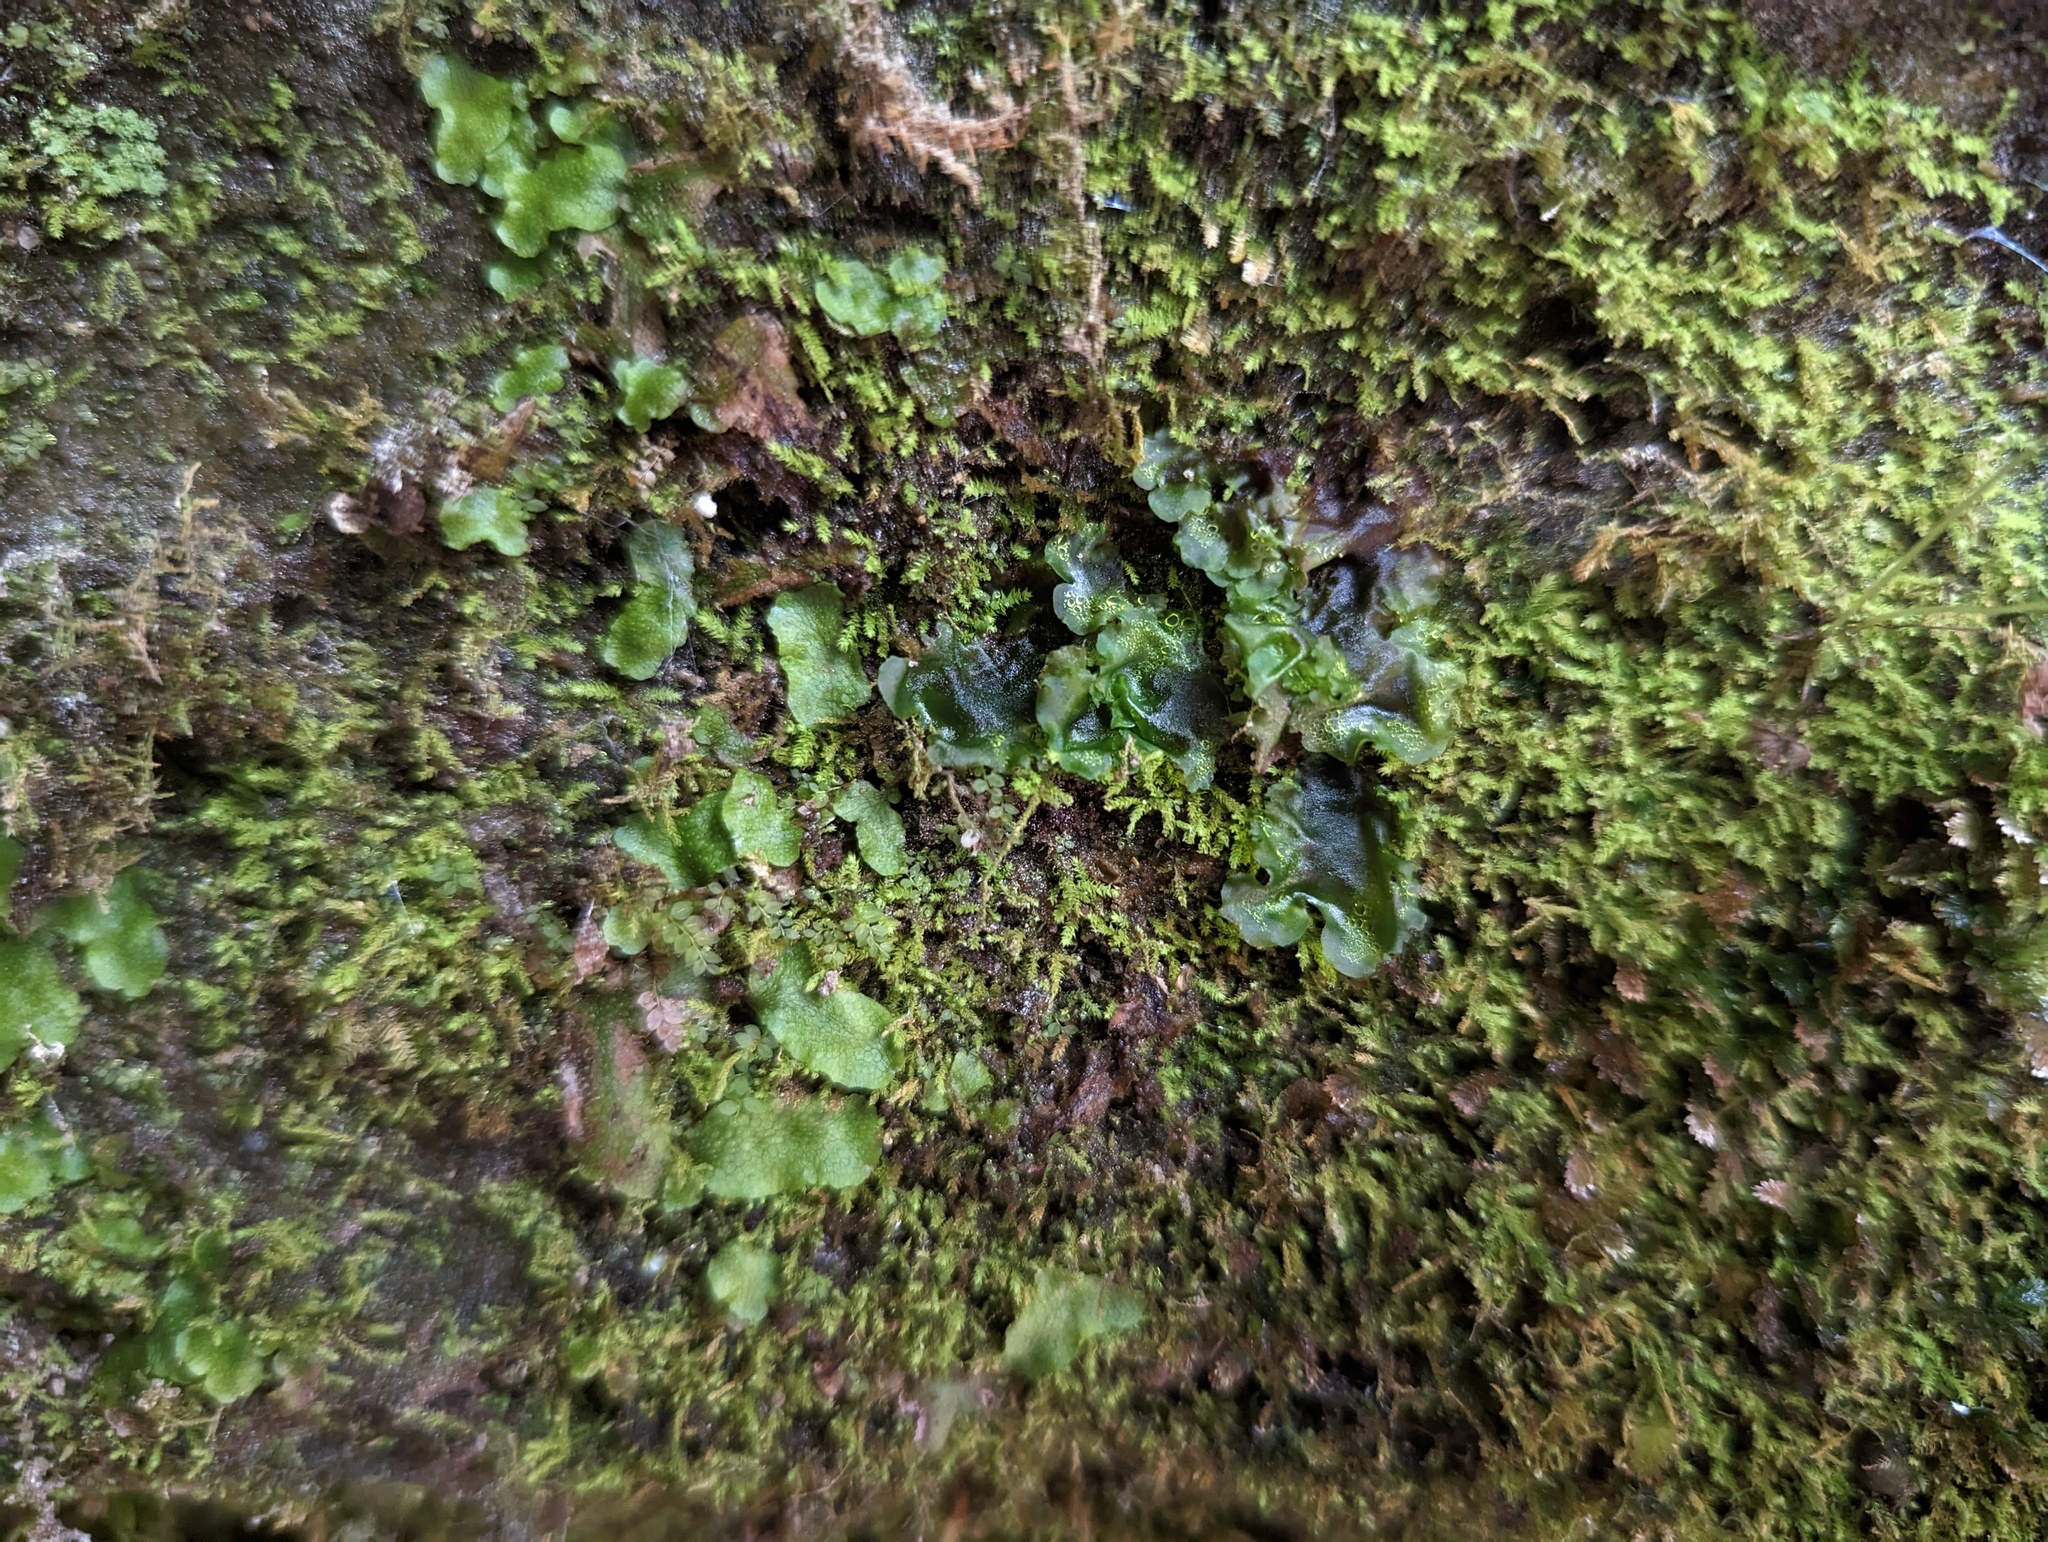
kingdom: Plantae
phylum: Marchantiophyta
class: Jungermanniopsida
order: Pelliales
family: Pelliaceae
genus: Pellia
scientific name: Pellia epiphylla
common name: Common pellia
